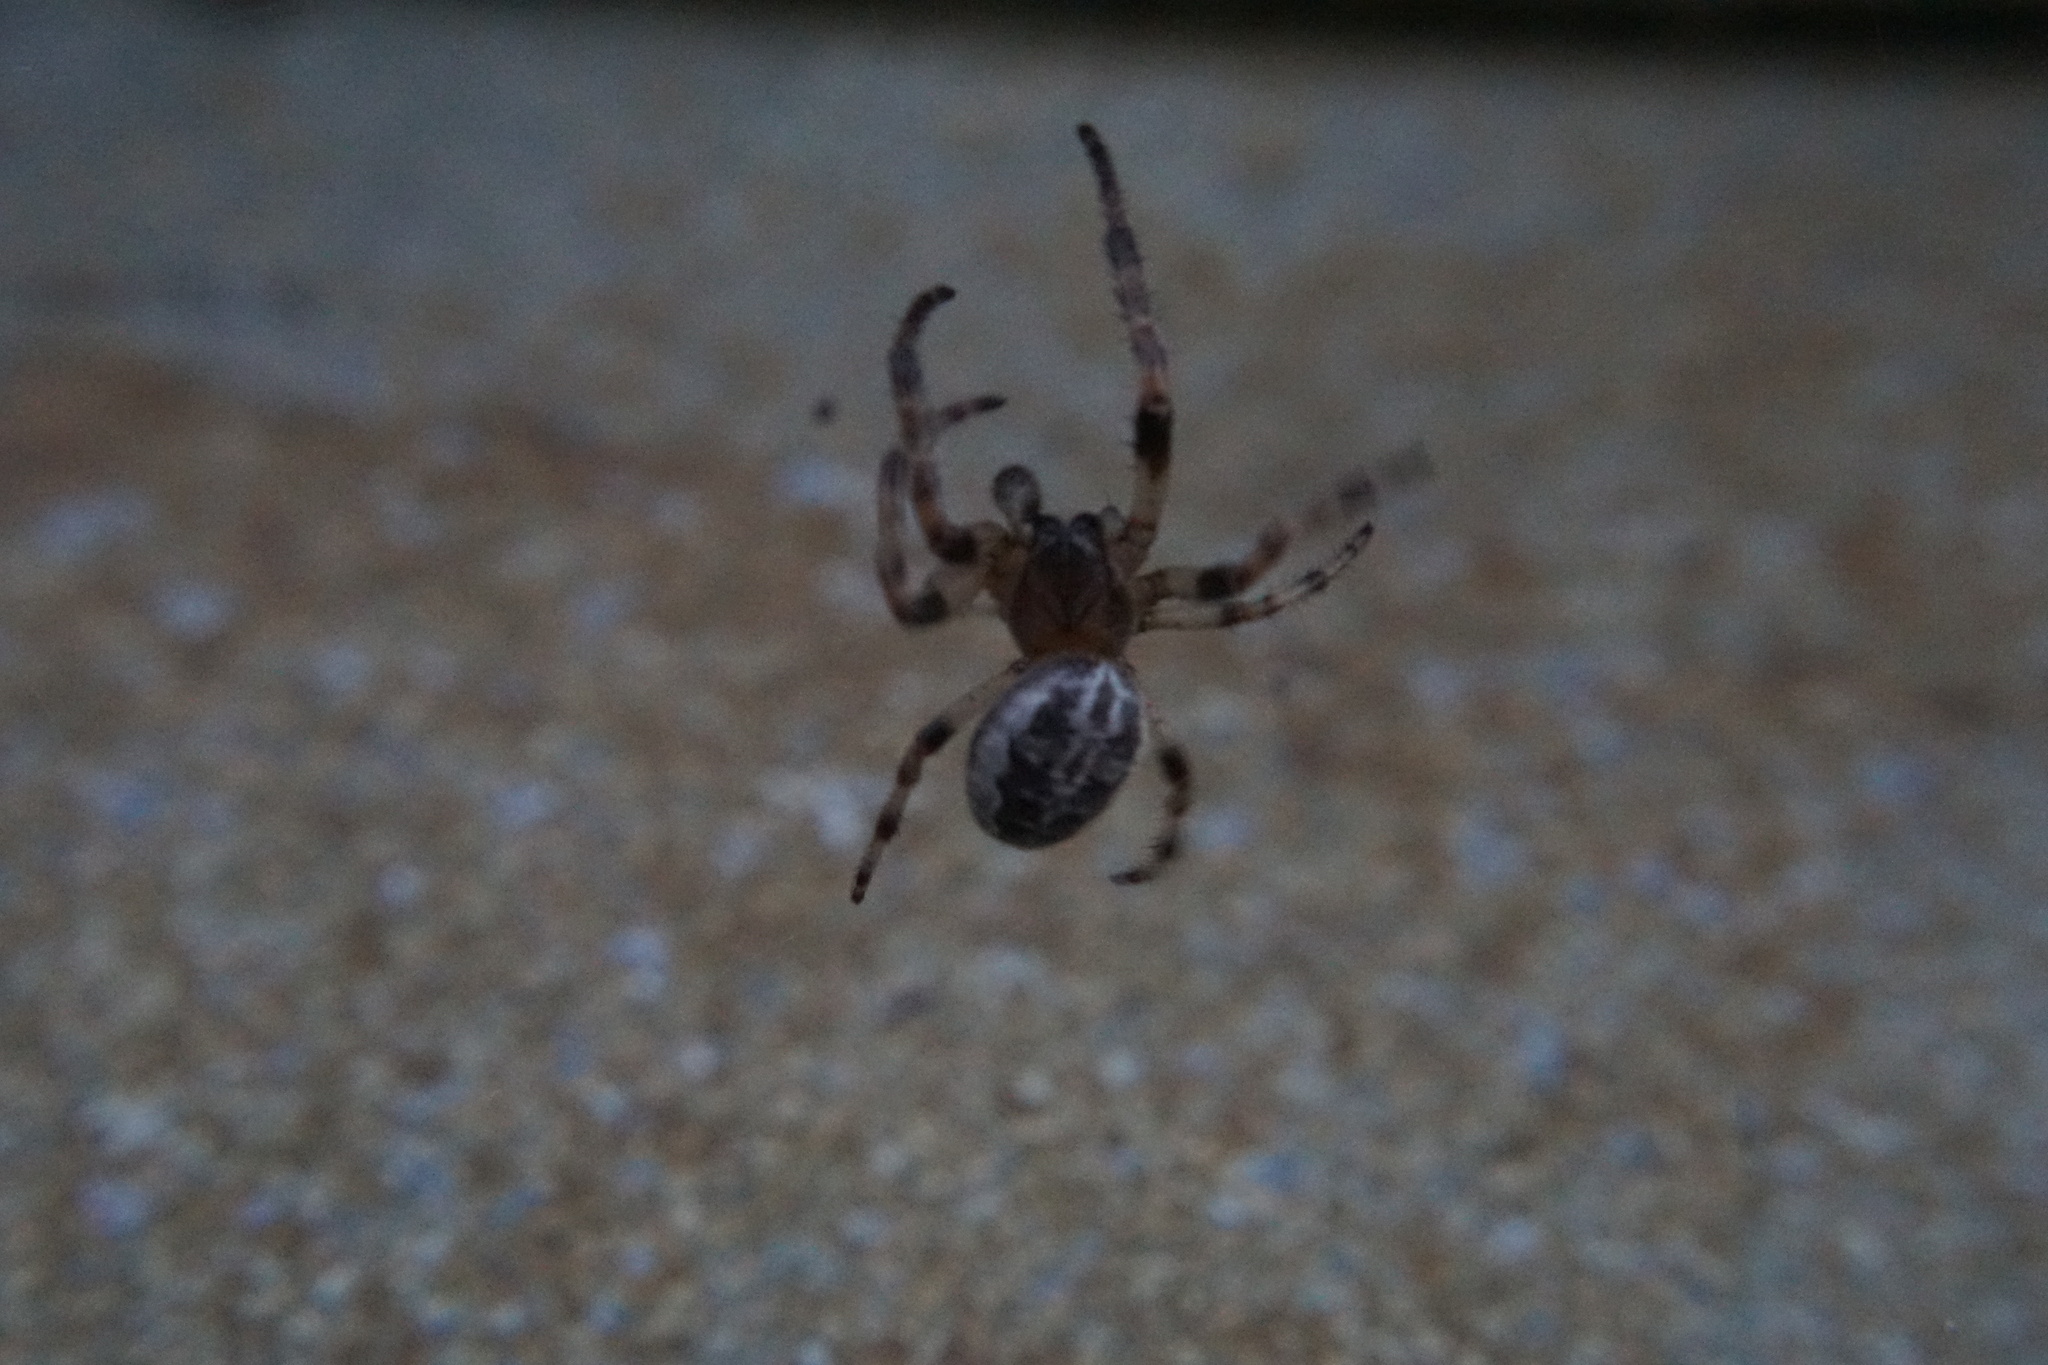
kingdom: Animalia
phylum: Arthropoda
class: Arachnida
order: Araneae
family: Araneidae
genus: Larinioides
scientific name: Larinioides cornutus
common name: Furrow orbweaver
